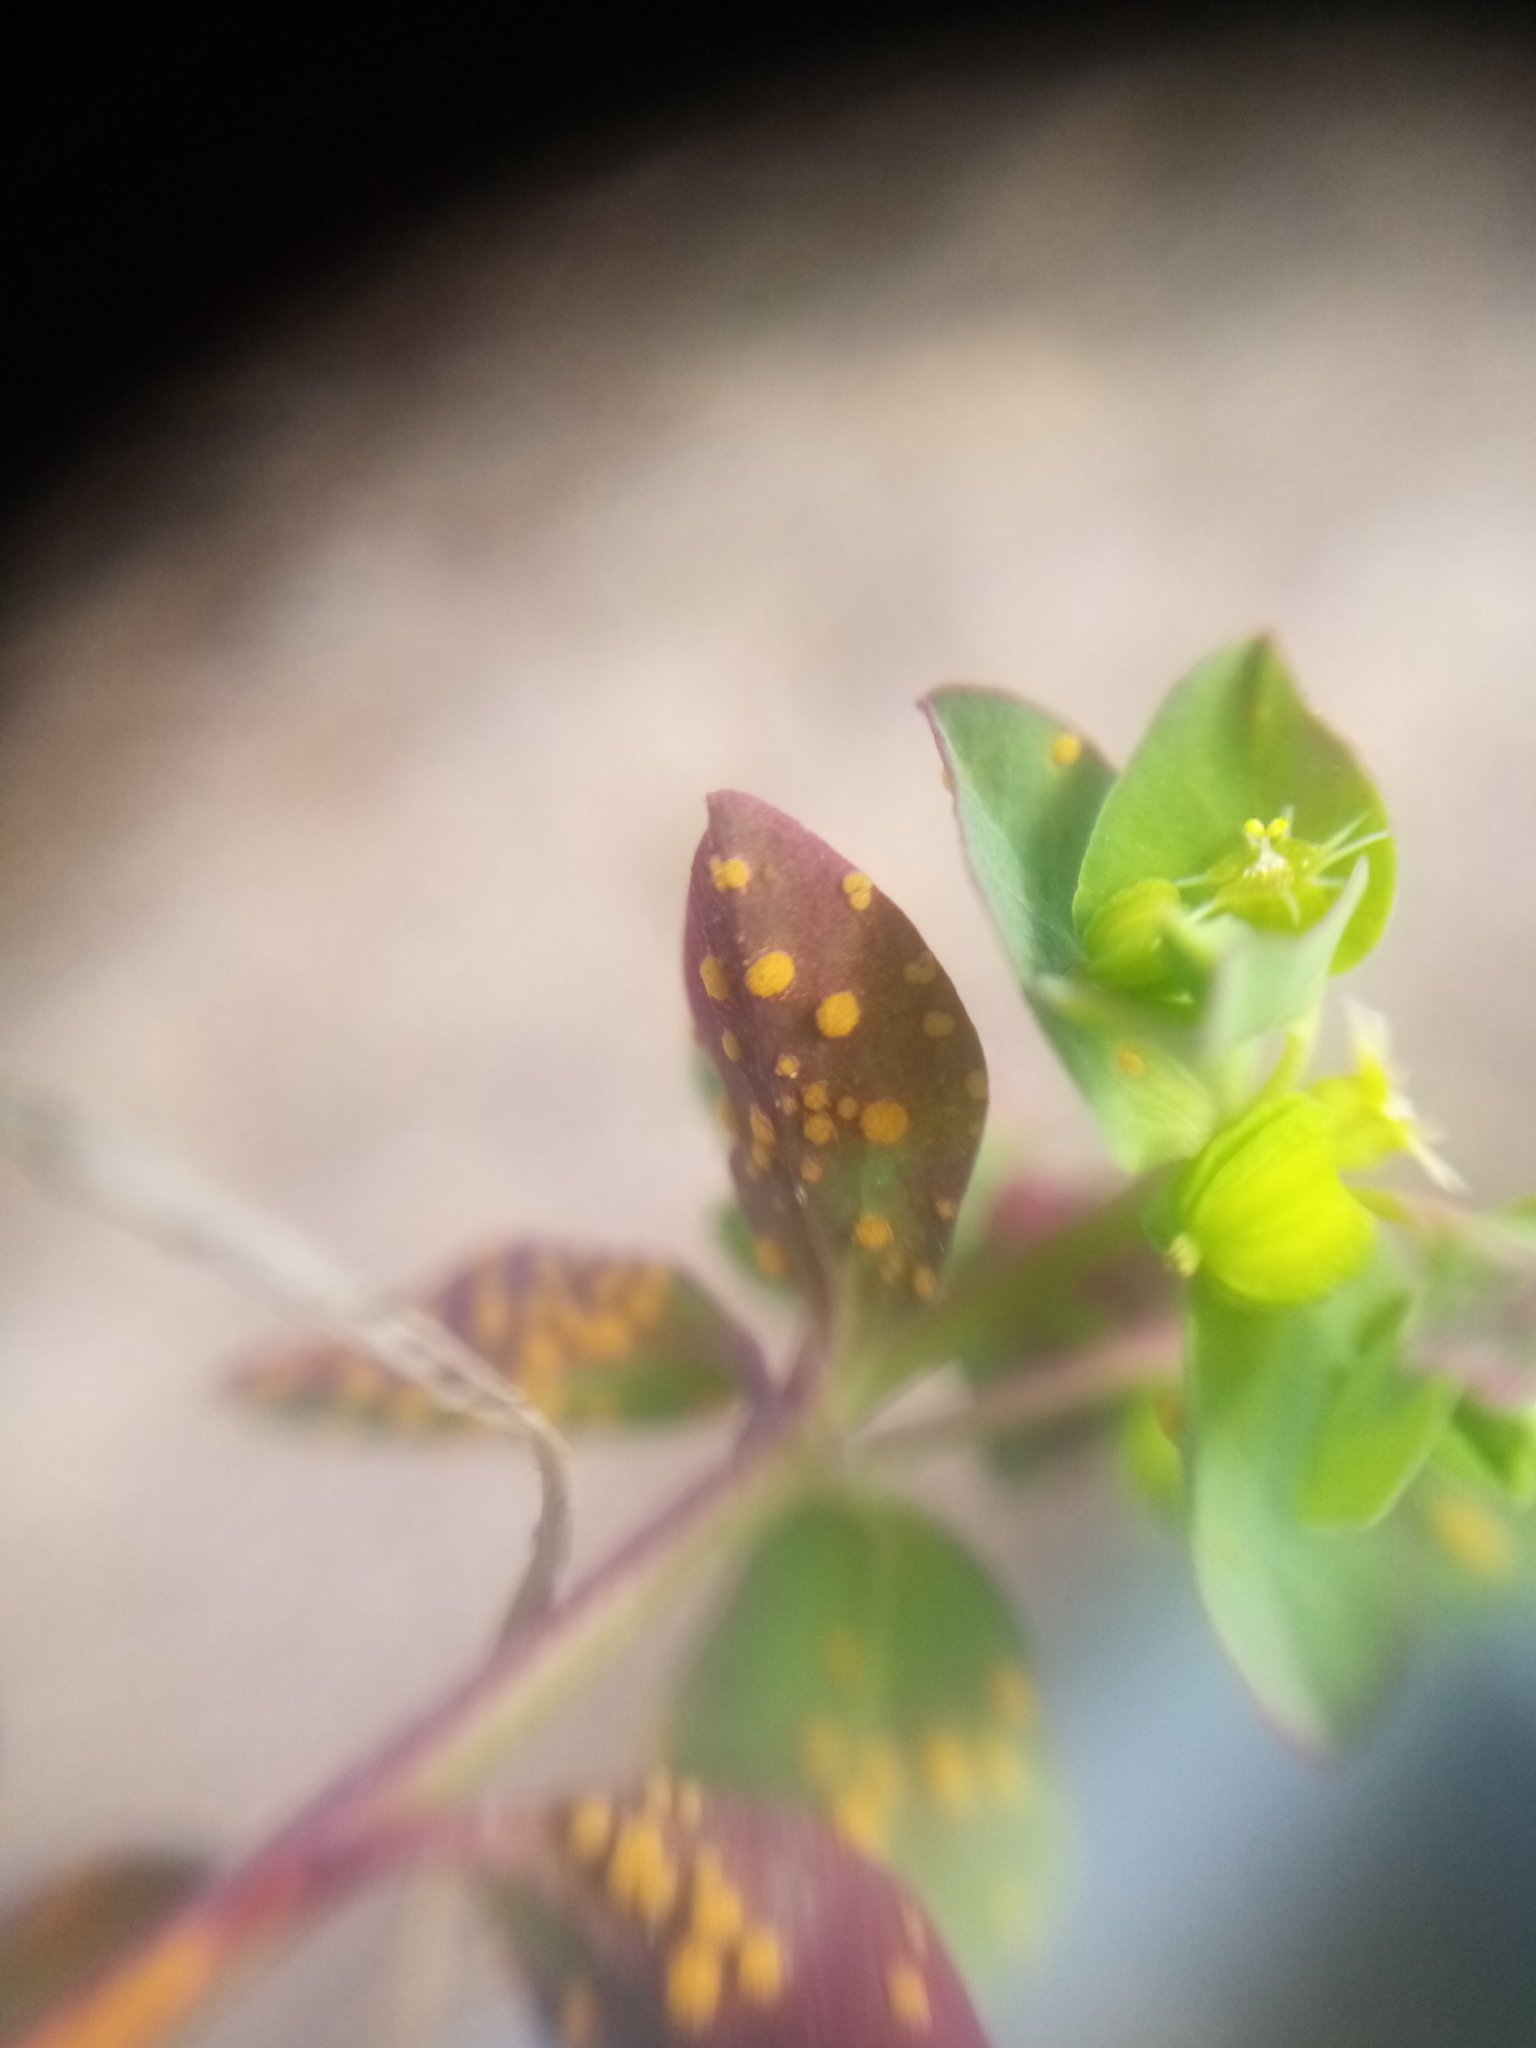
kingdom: Fungi
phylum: Basidiomycota
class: Pucciniomycetes
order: Pucciniales
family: Melampsoraceae
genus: Melampsora
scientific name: Melampsora euphorbiae
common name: Spurge rust
